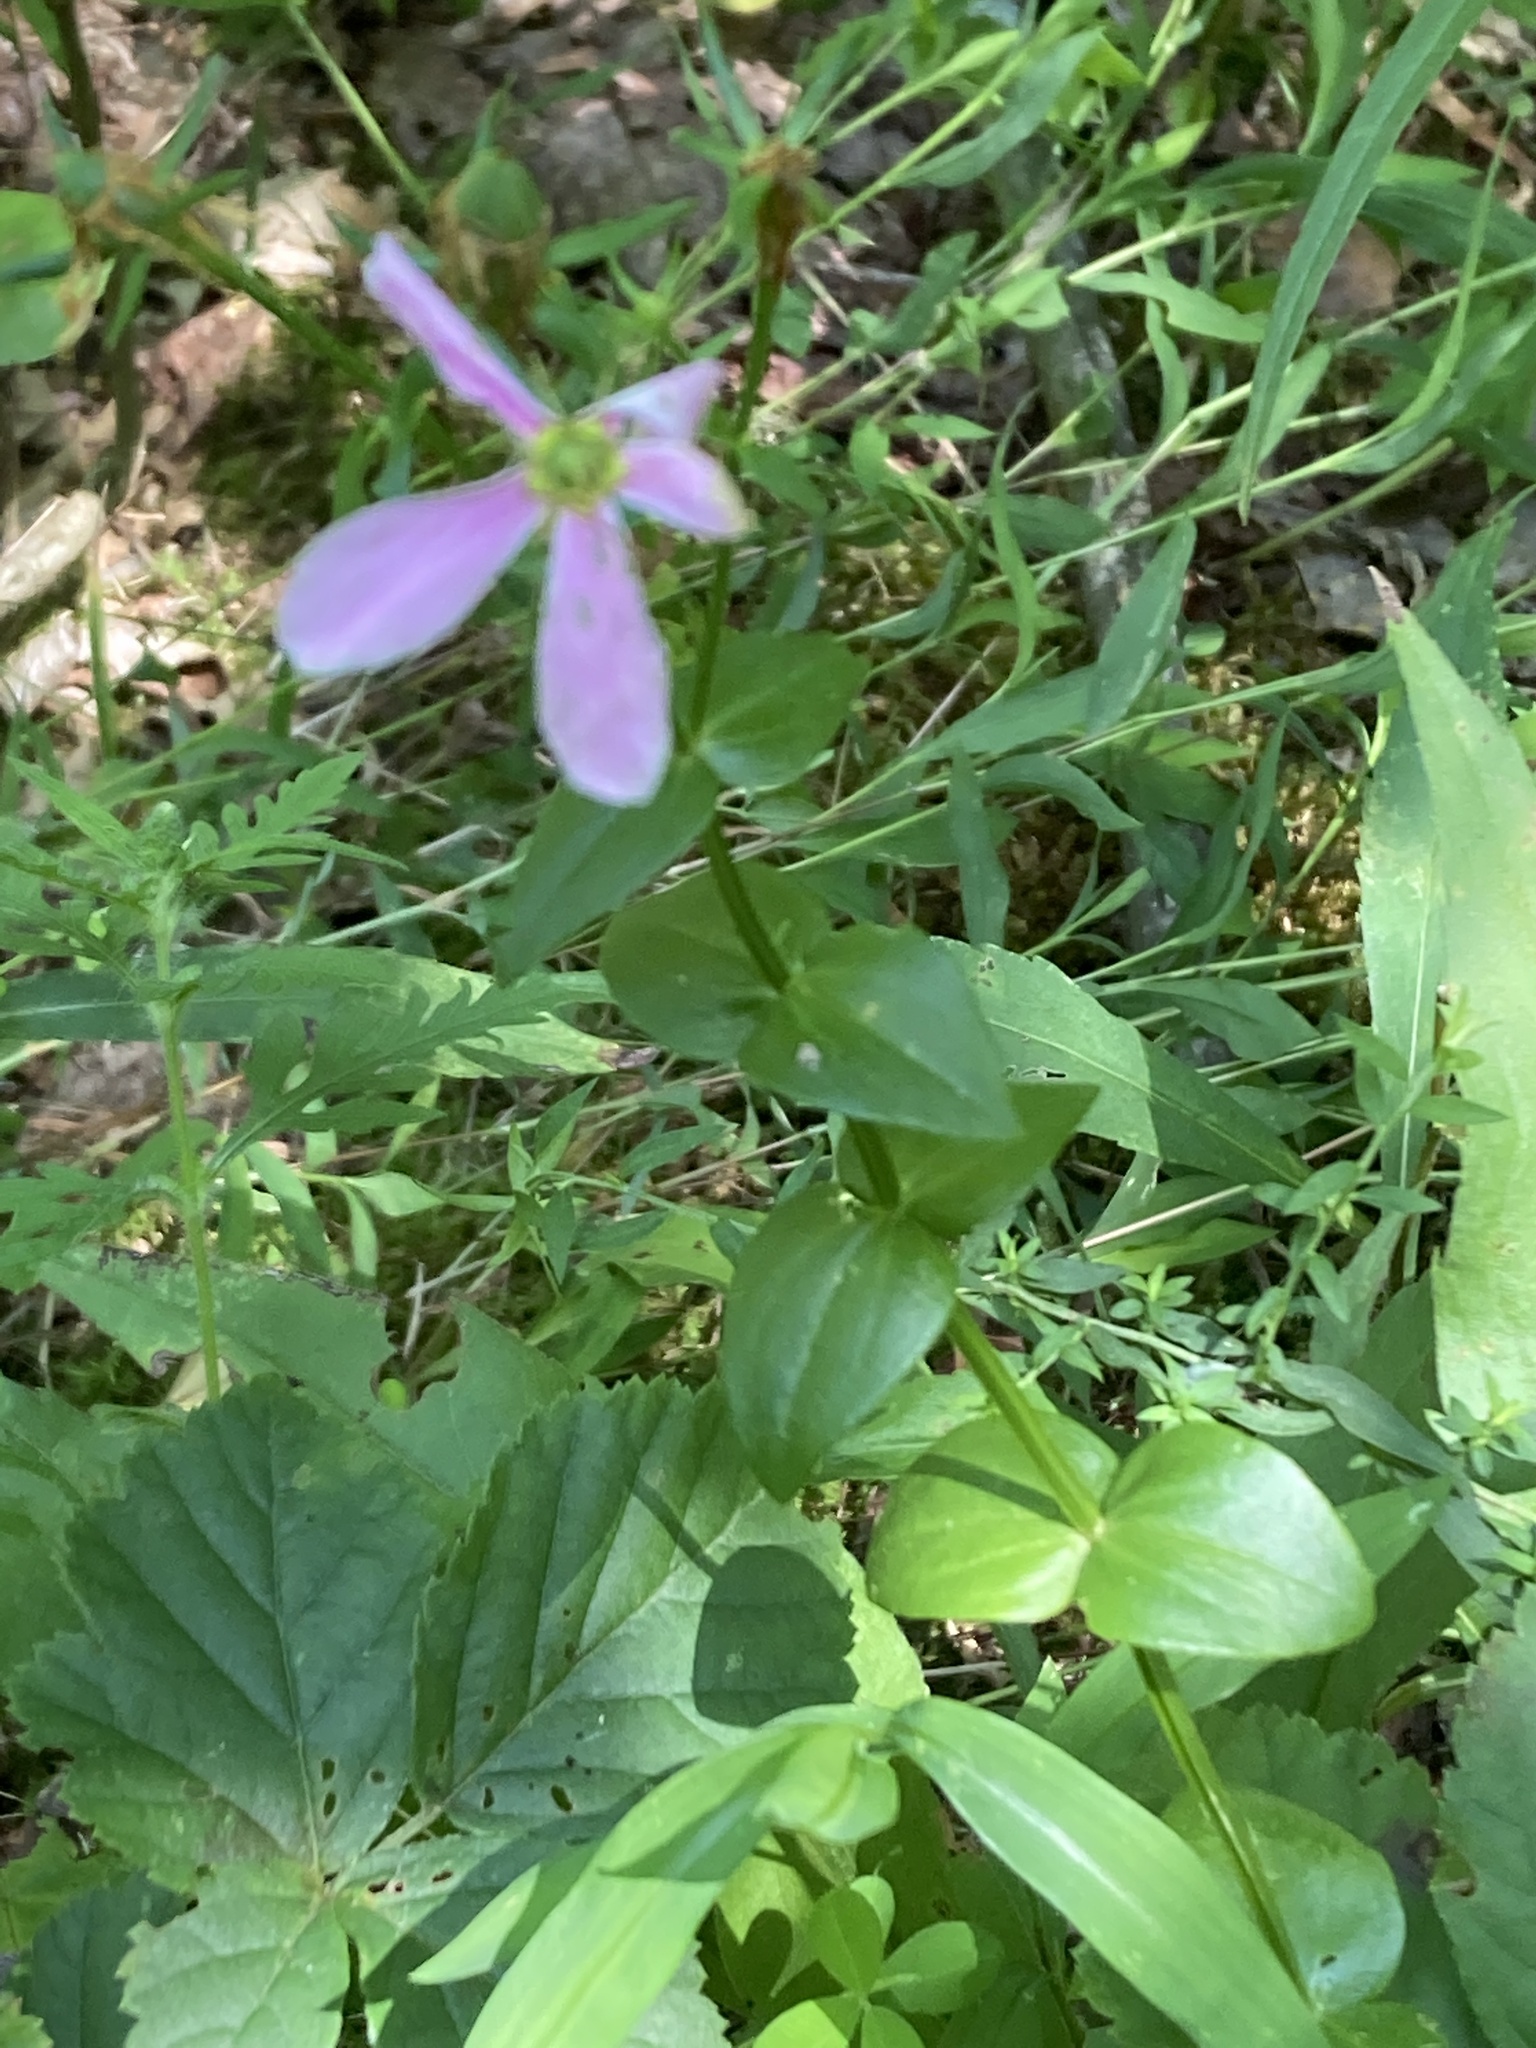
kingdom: Plantae
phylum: Tracheophyta
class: Magnoliopsida
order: Gentianales
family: Gentianaceae
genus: Sabatia
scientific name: Sabatia angularis
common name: Rose-pink
